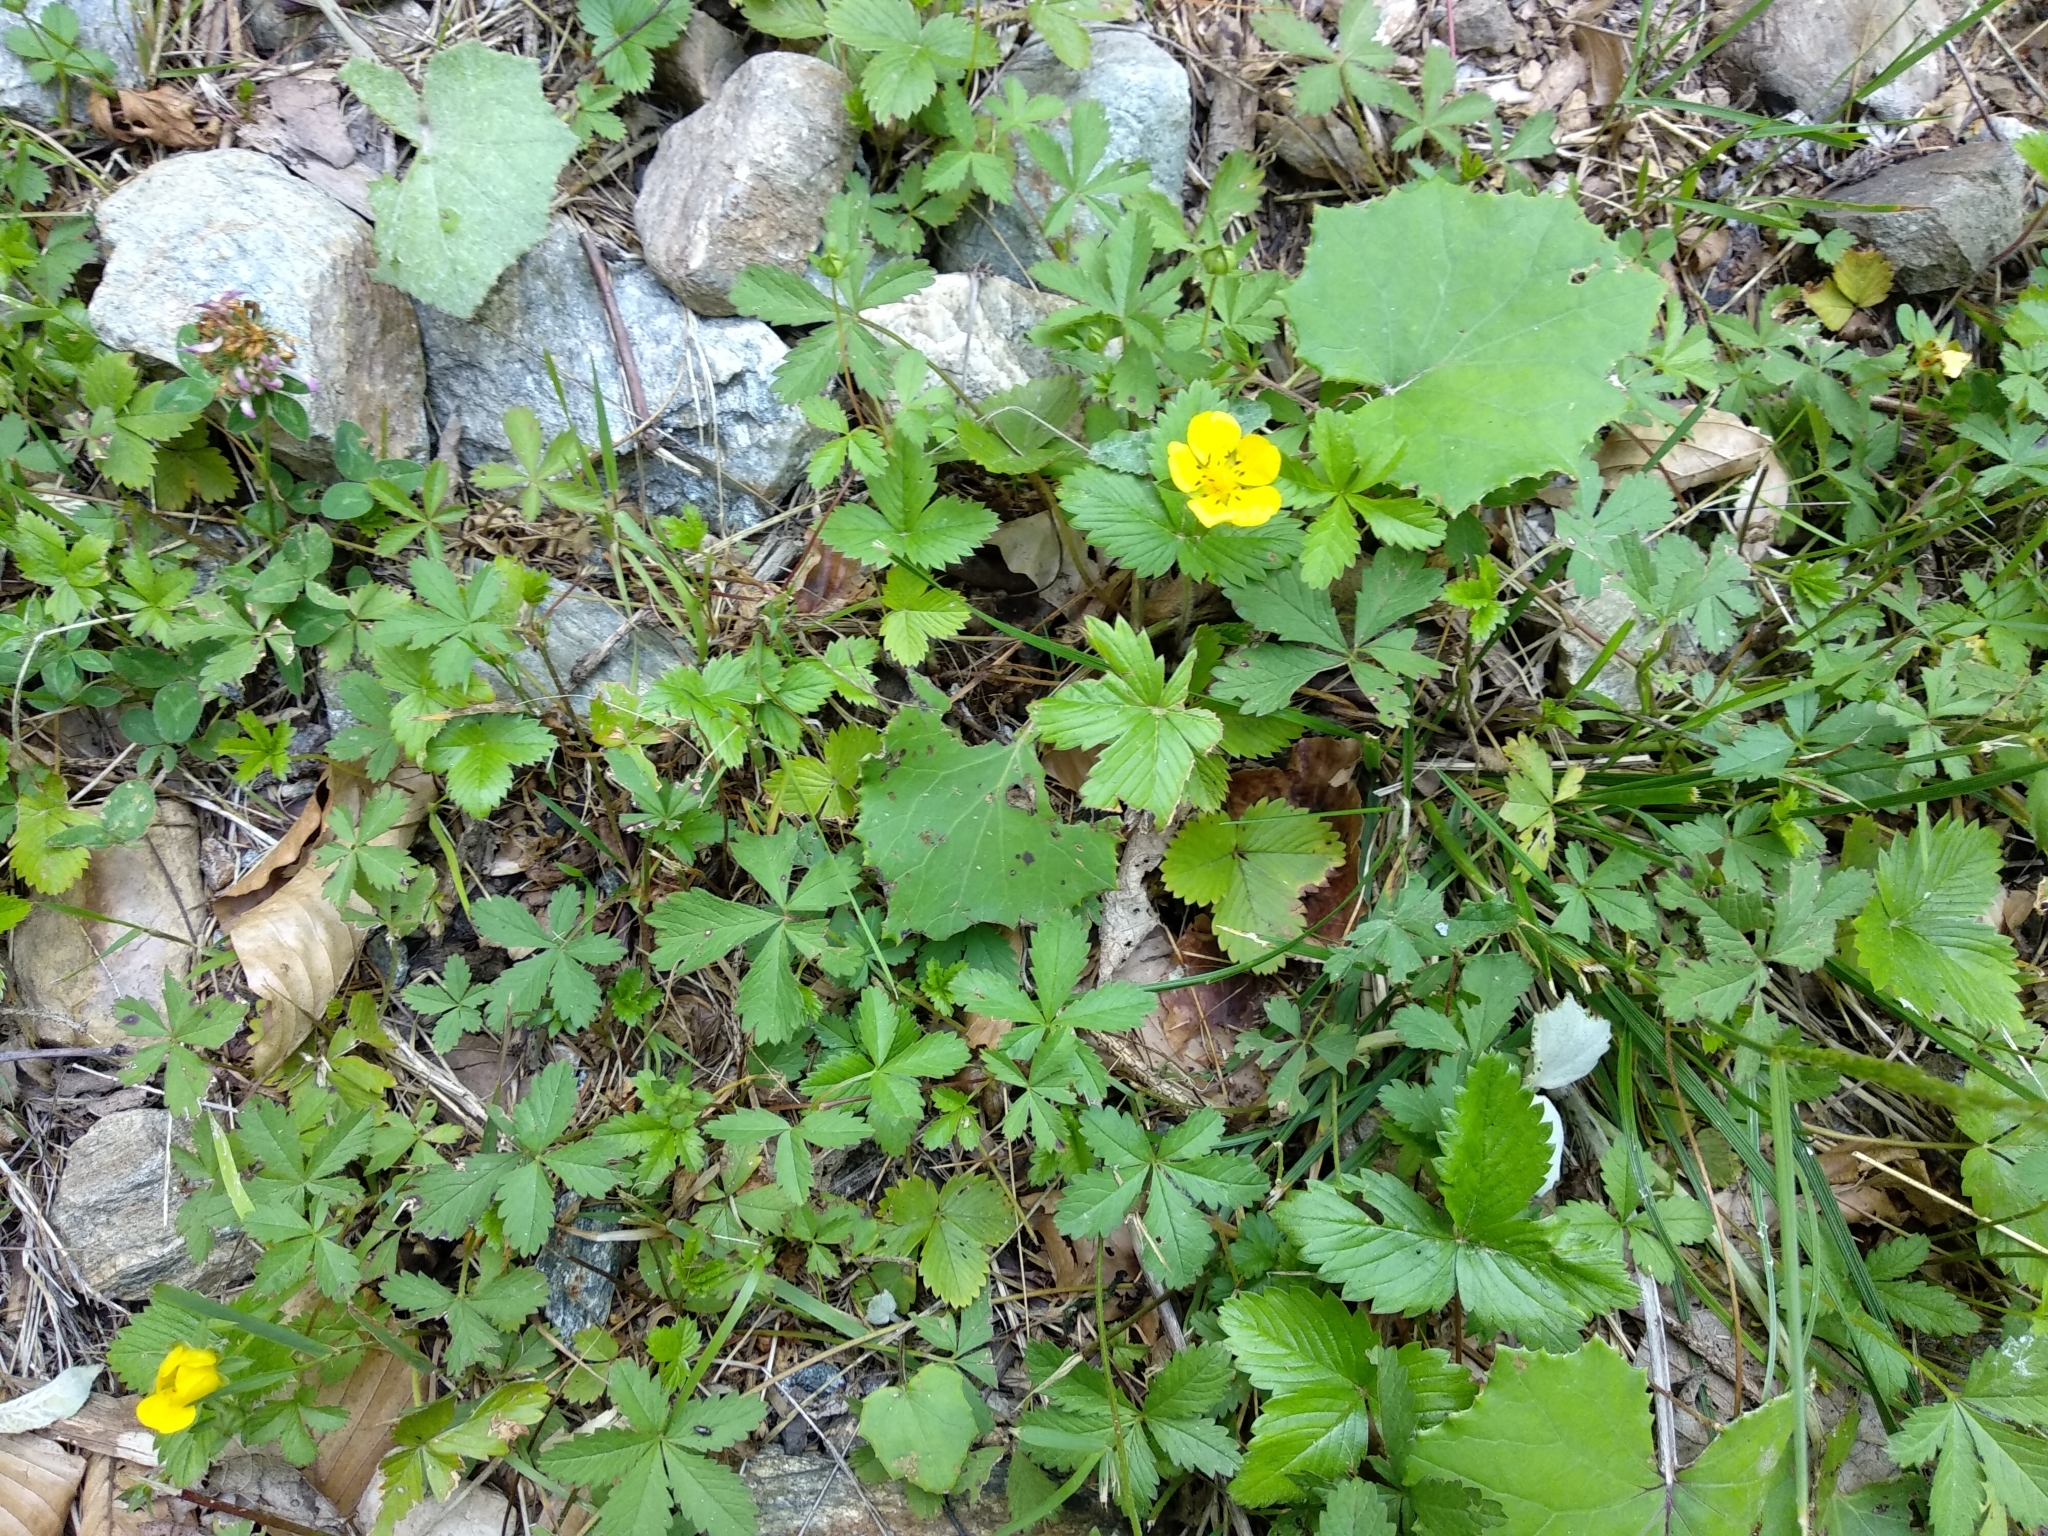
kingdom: Plantae
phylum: Tracheophyta
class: Magnoliopsida
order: Rosales
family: Rosaceae
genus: Potentilla
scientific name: Potentilla reptans
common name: Creeping cinquefoil
